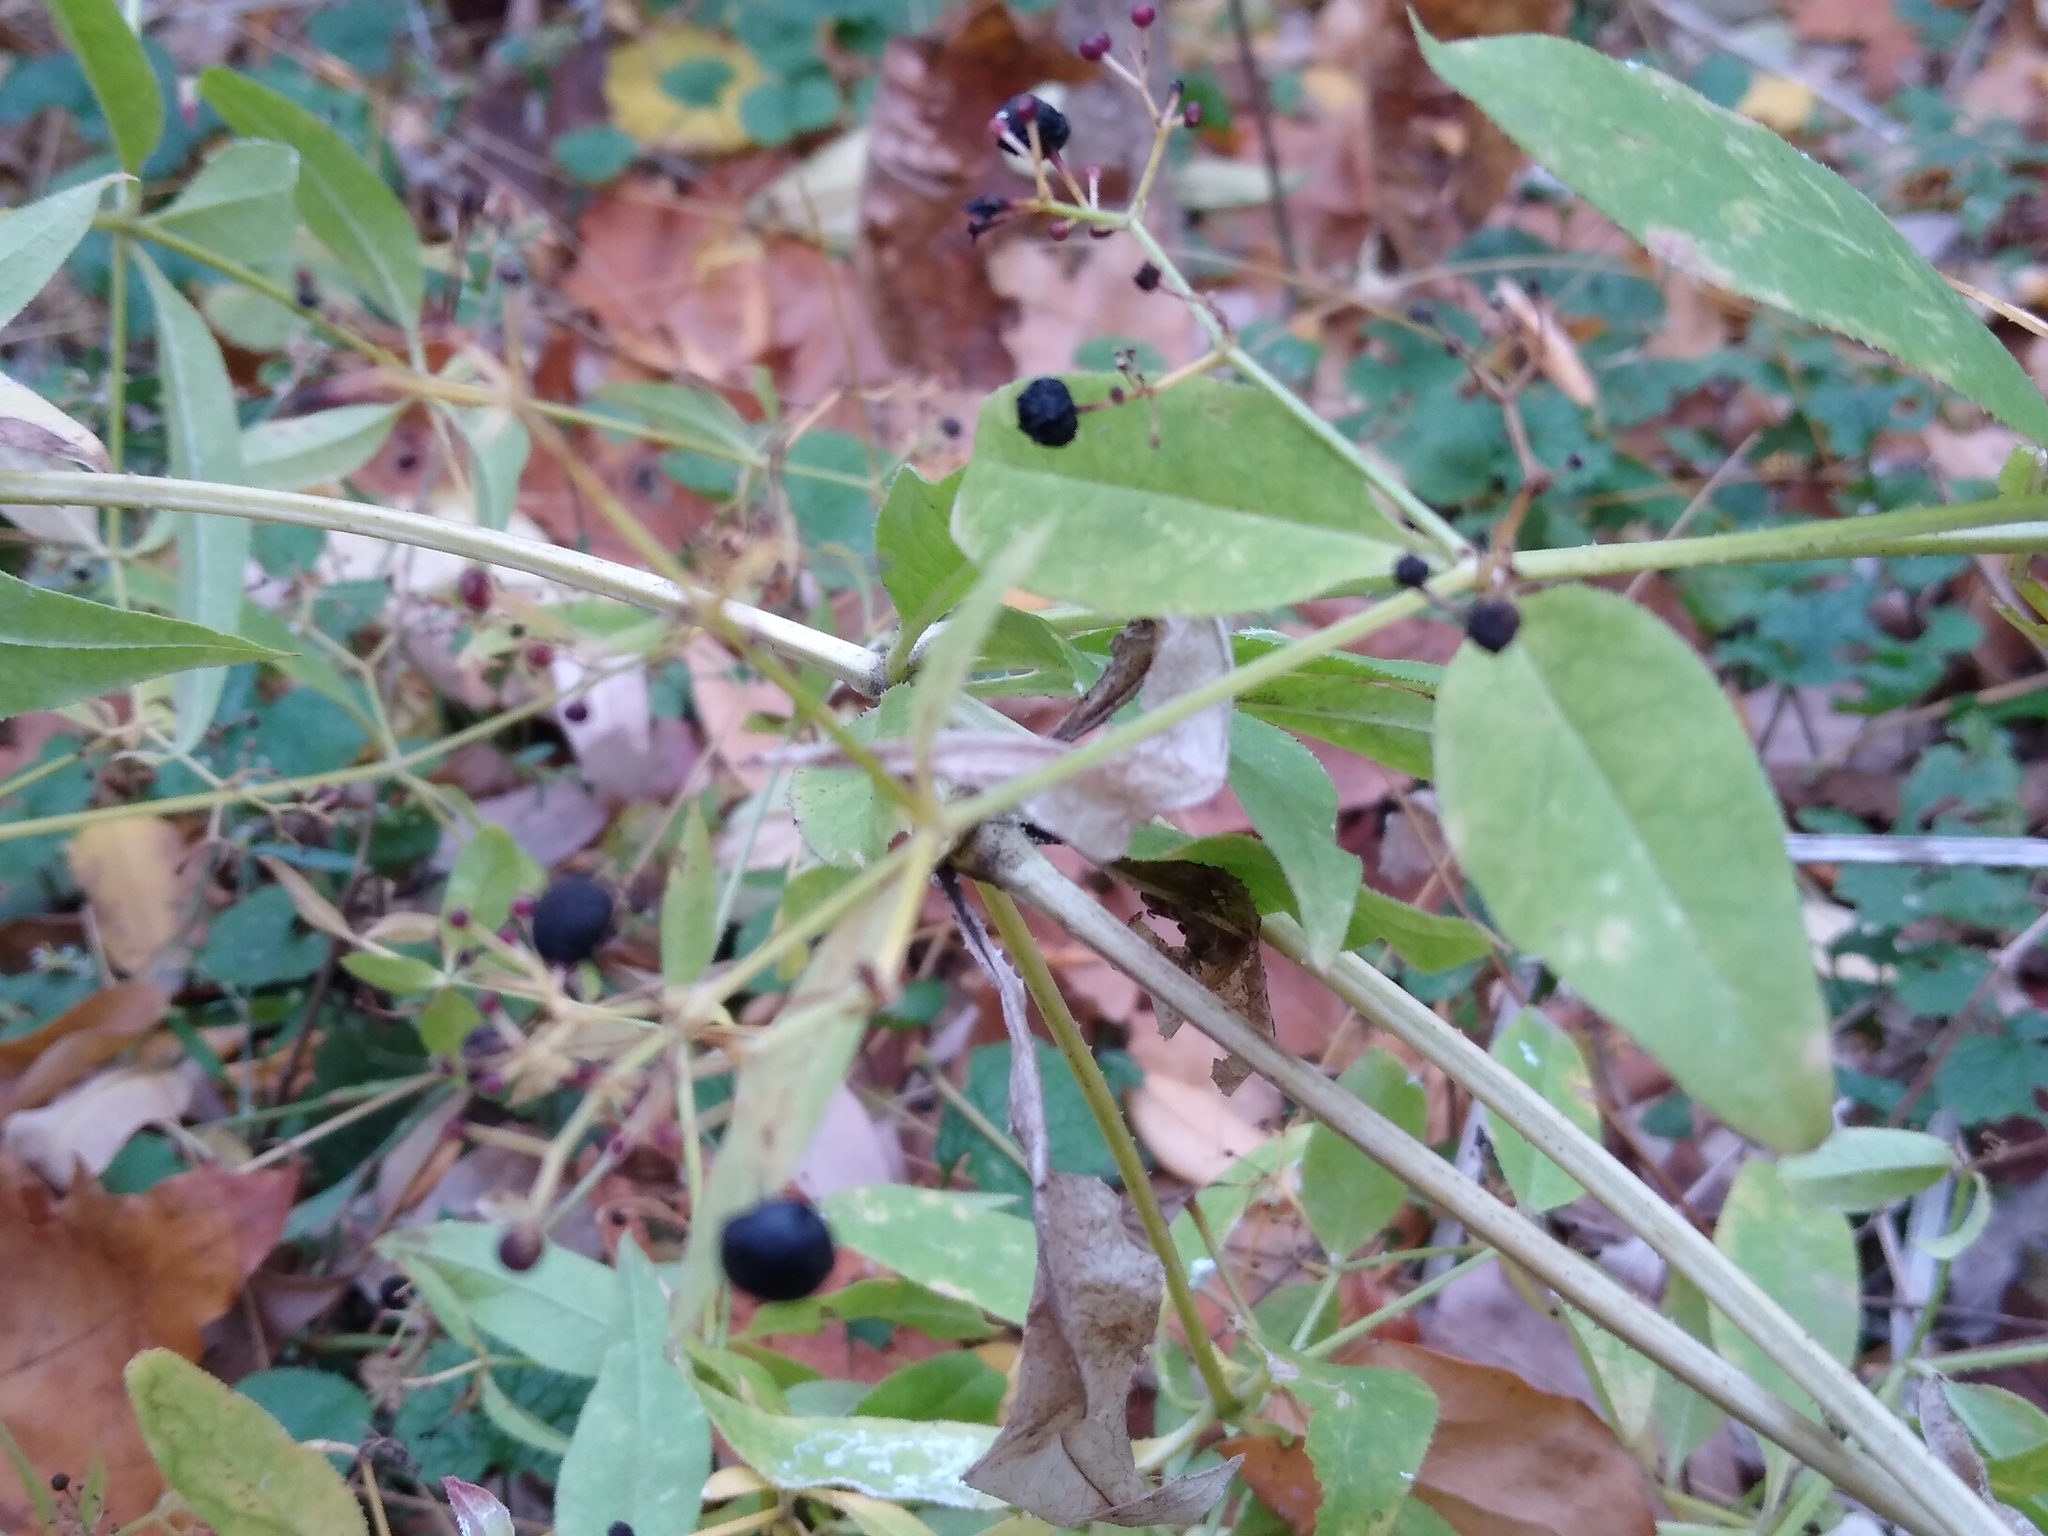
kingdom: Plantae
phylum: Tracheophyta
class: Magnoliopsida
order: Gentianales
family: Rubiaceae
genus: Rubia
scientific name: Rubia tinctorum
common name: Dyer's madder
